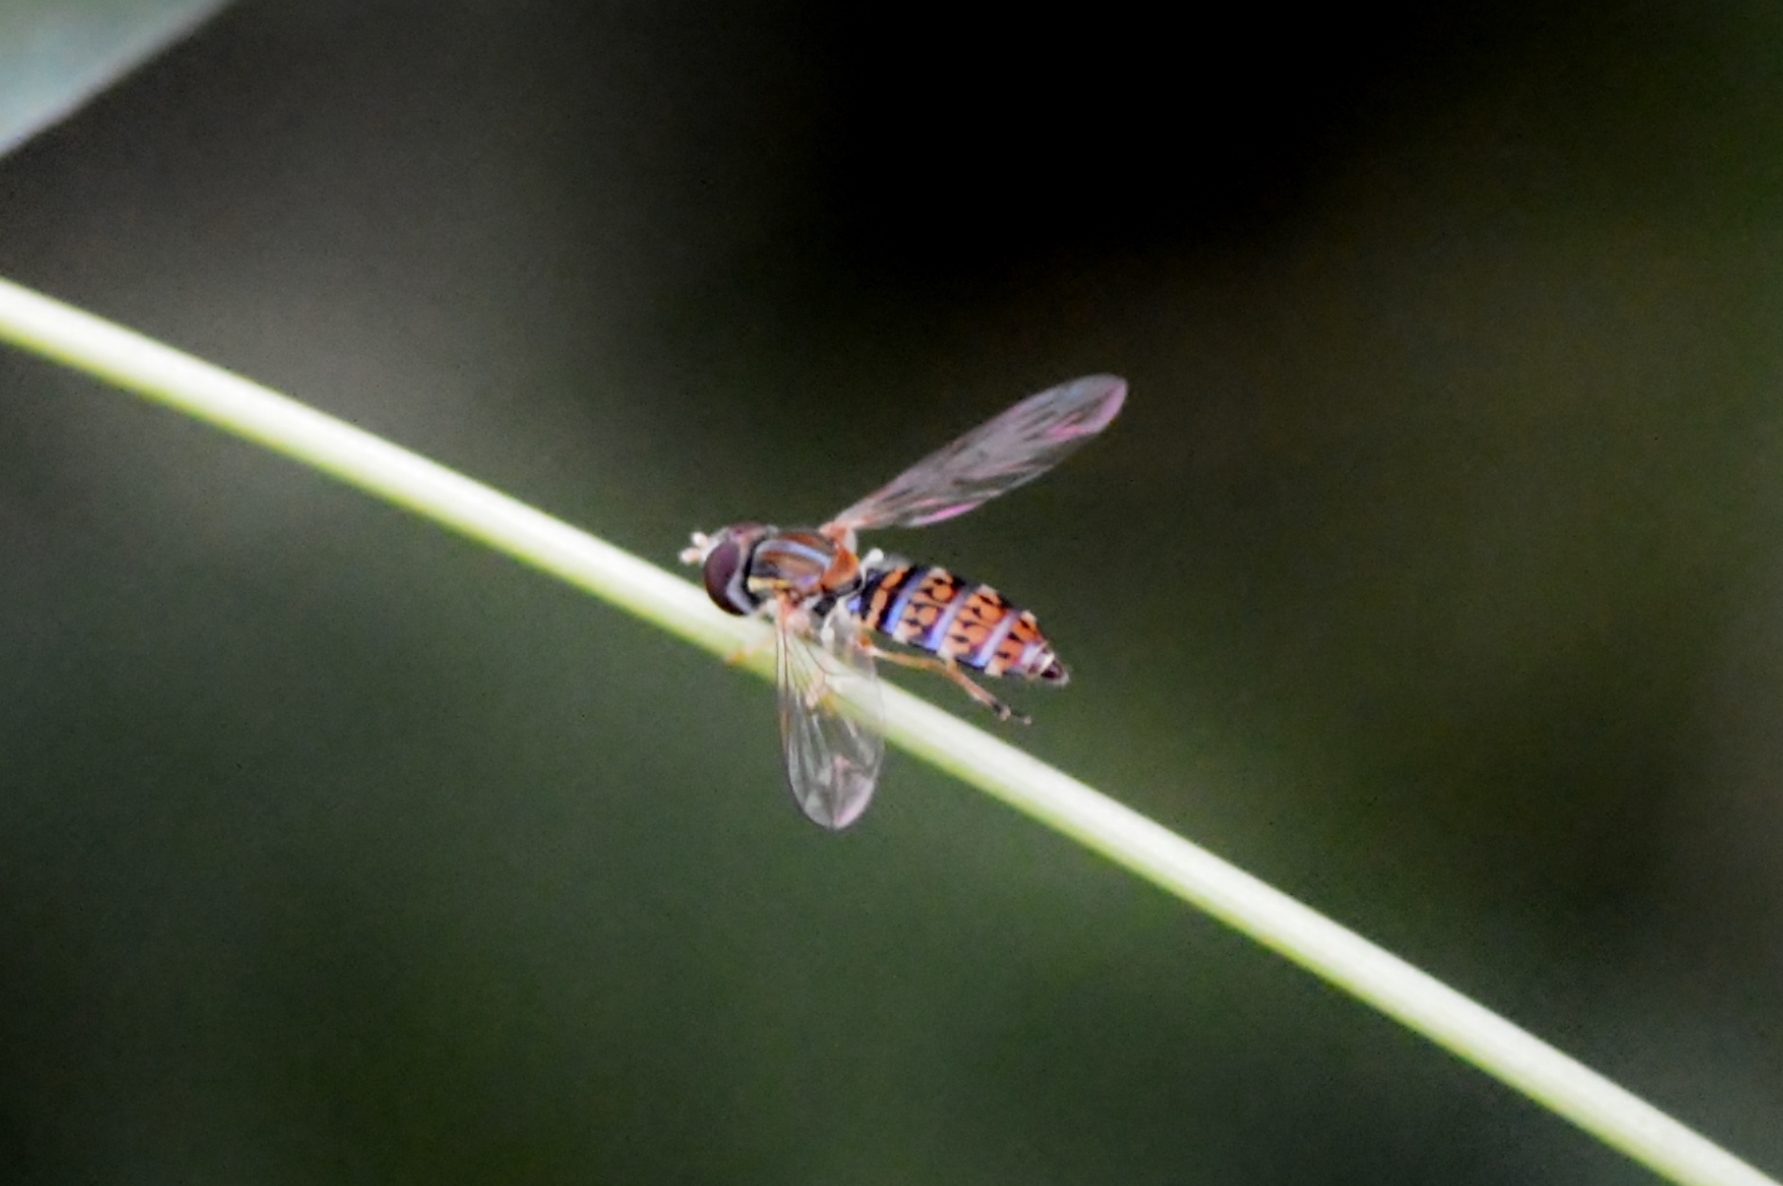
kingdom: Animalia
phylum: Arthropoda
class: Insecta
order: Diptera
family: Syrphidae
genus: Toxomerus
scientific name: Toxomerus
